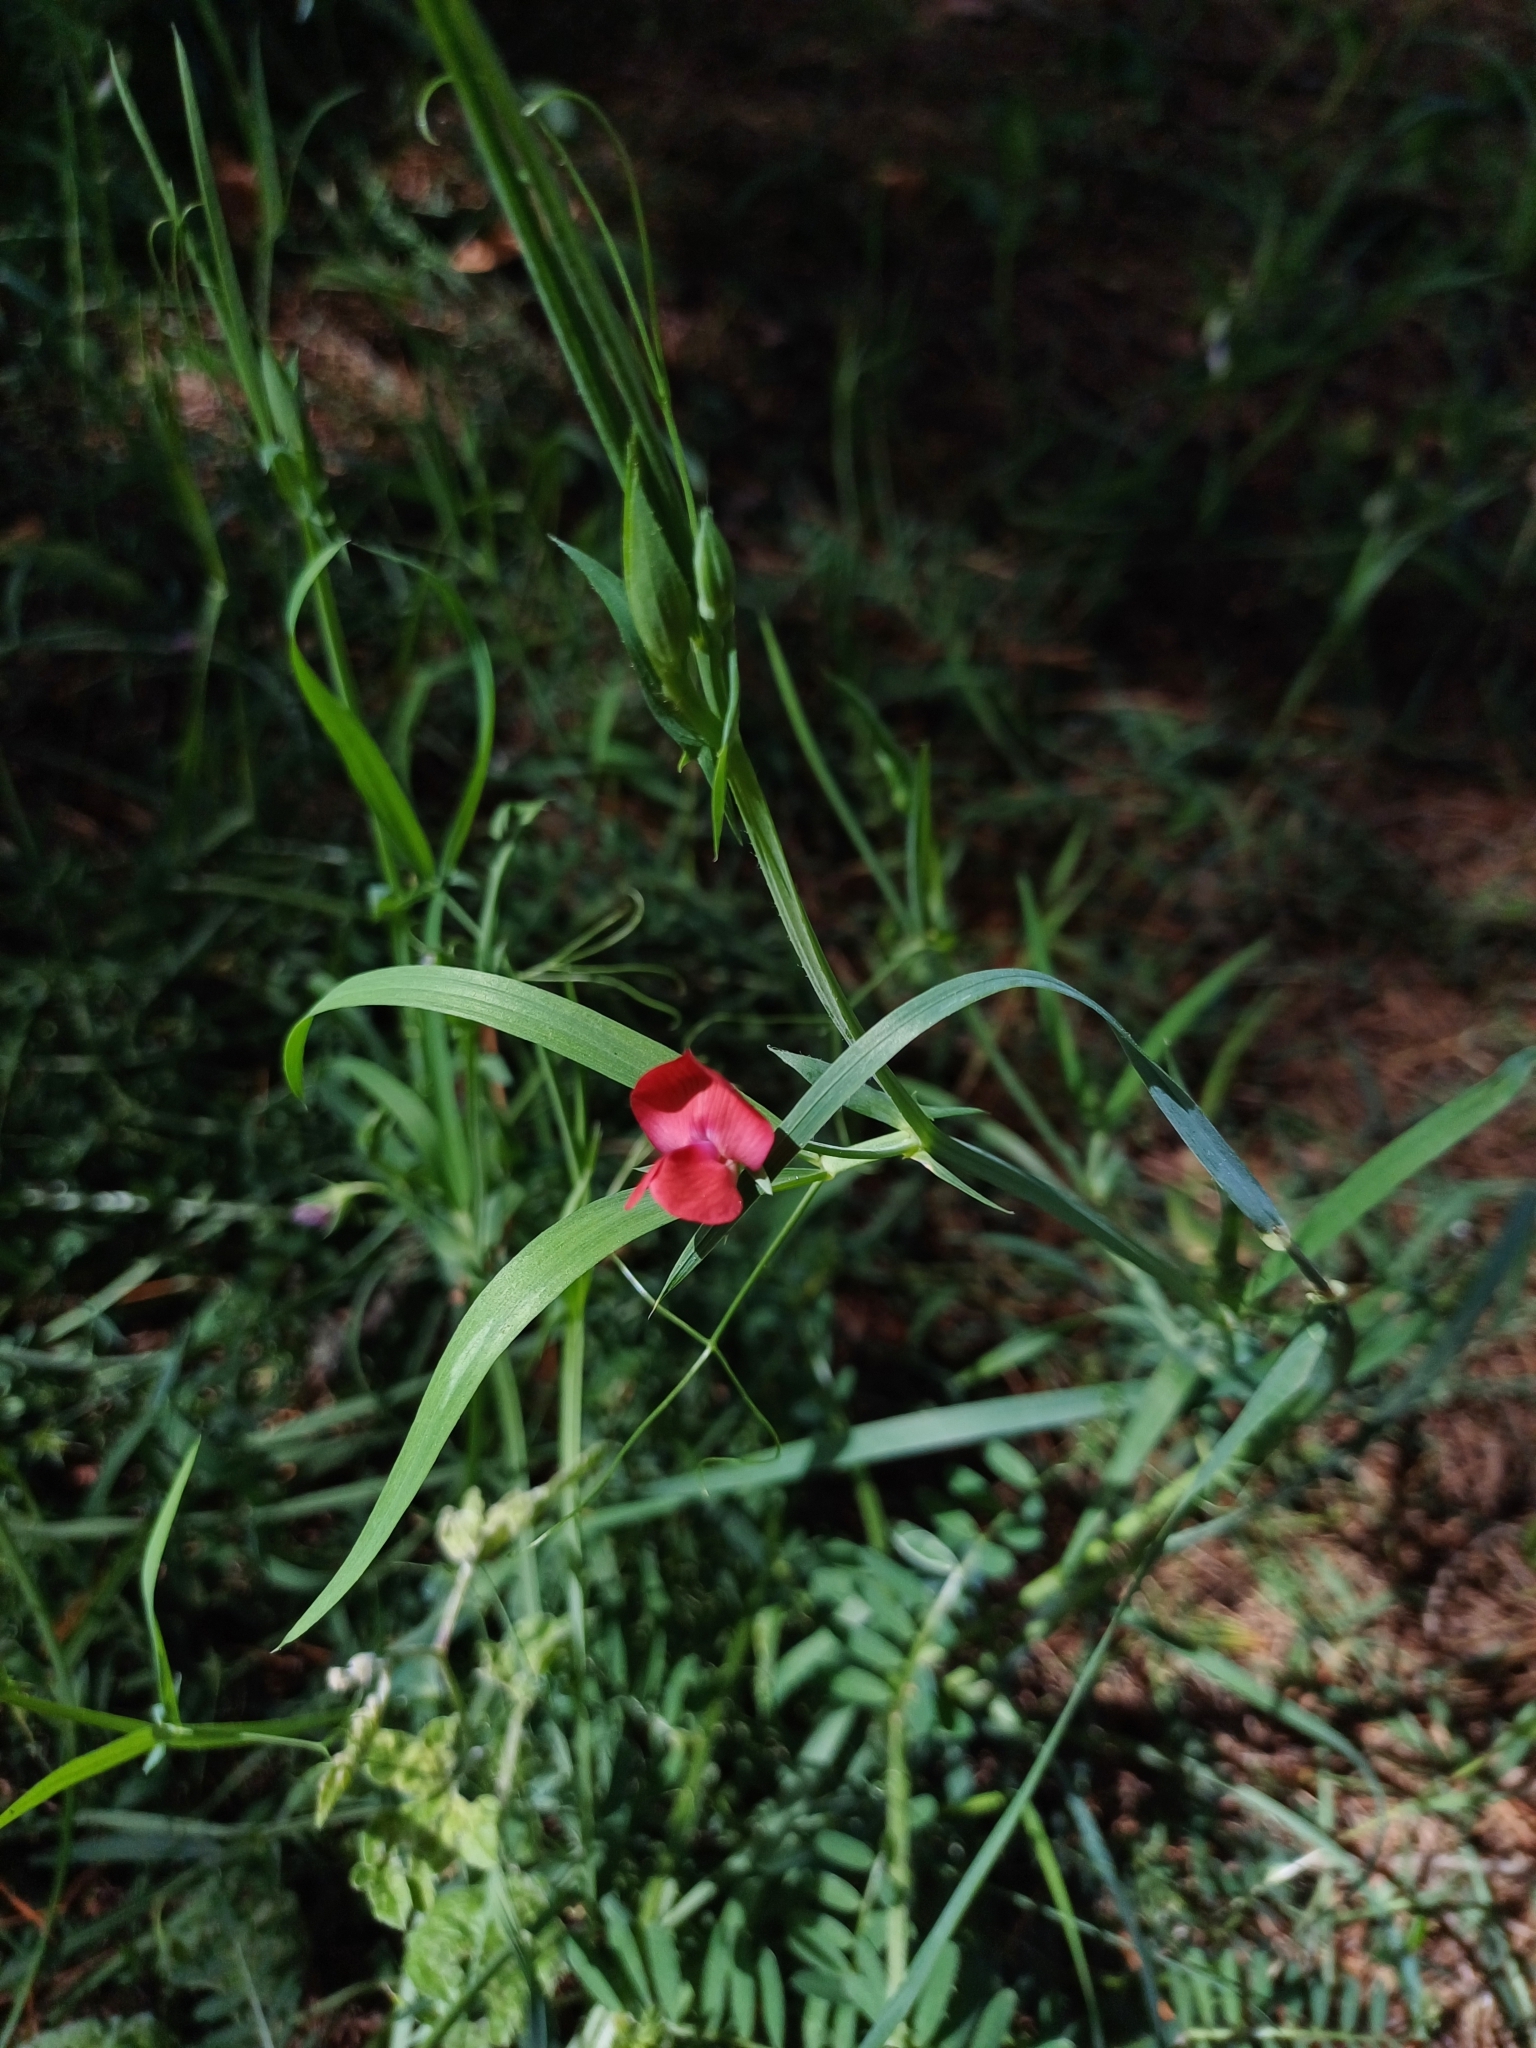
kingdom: Plantae
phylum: Tracheophyta
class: Magnoliopsida
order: Fabales
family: Fabaceae
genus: Lathyrus
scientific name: Lathyrus cicera
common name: Red vetchling
